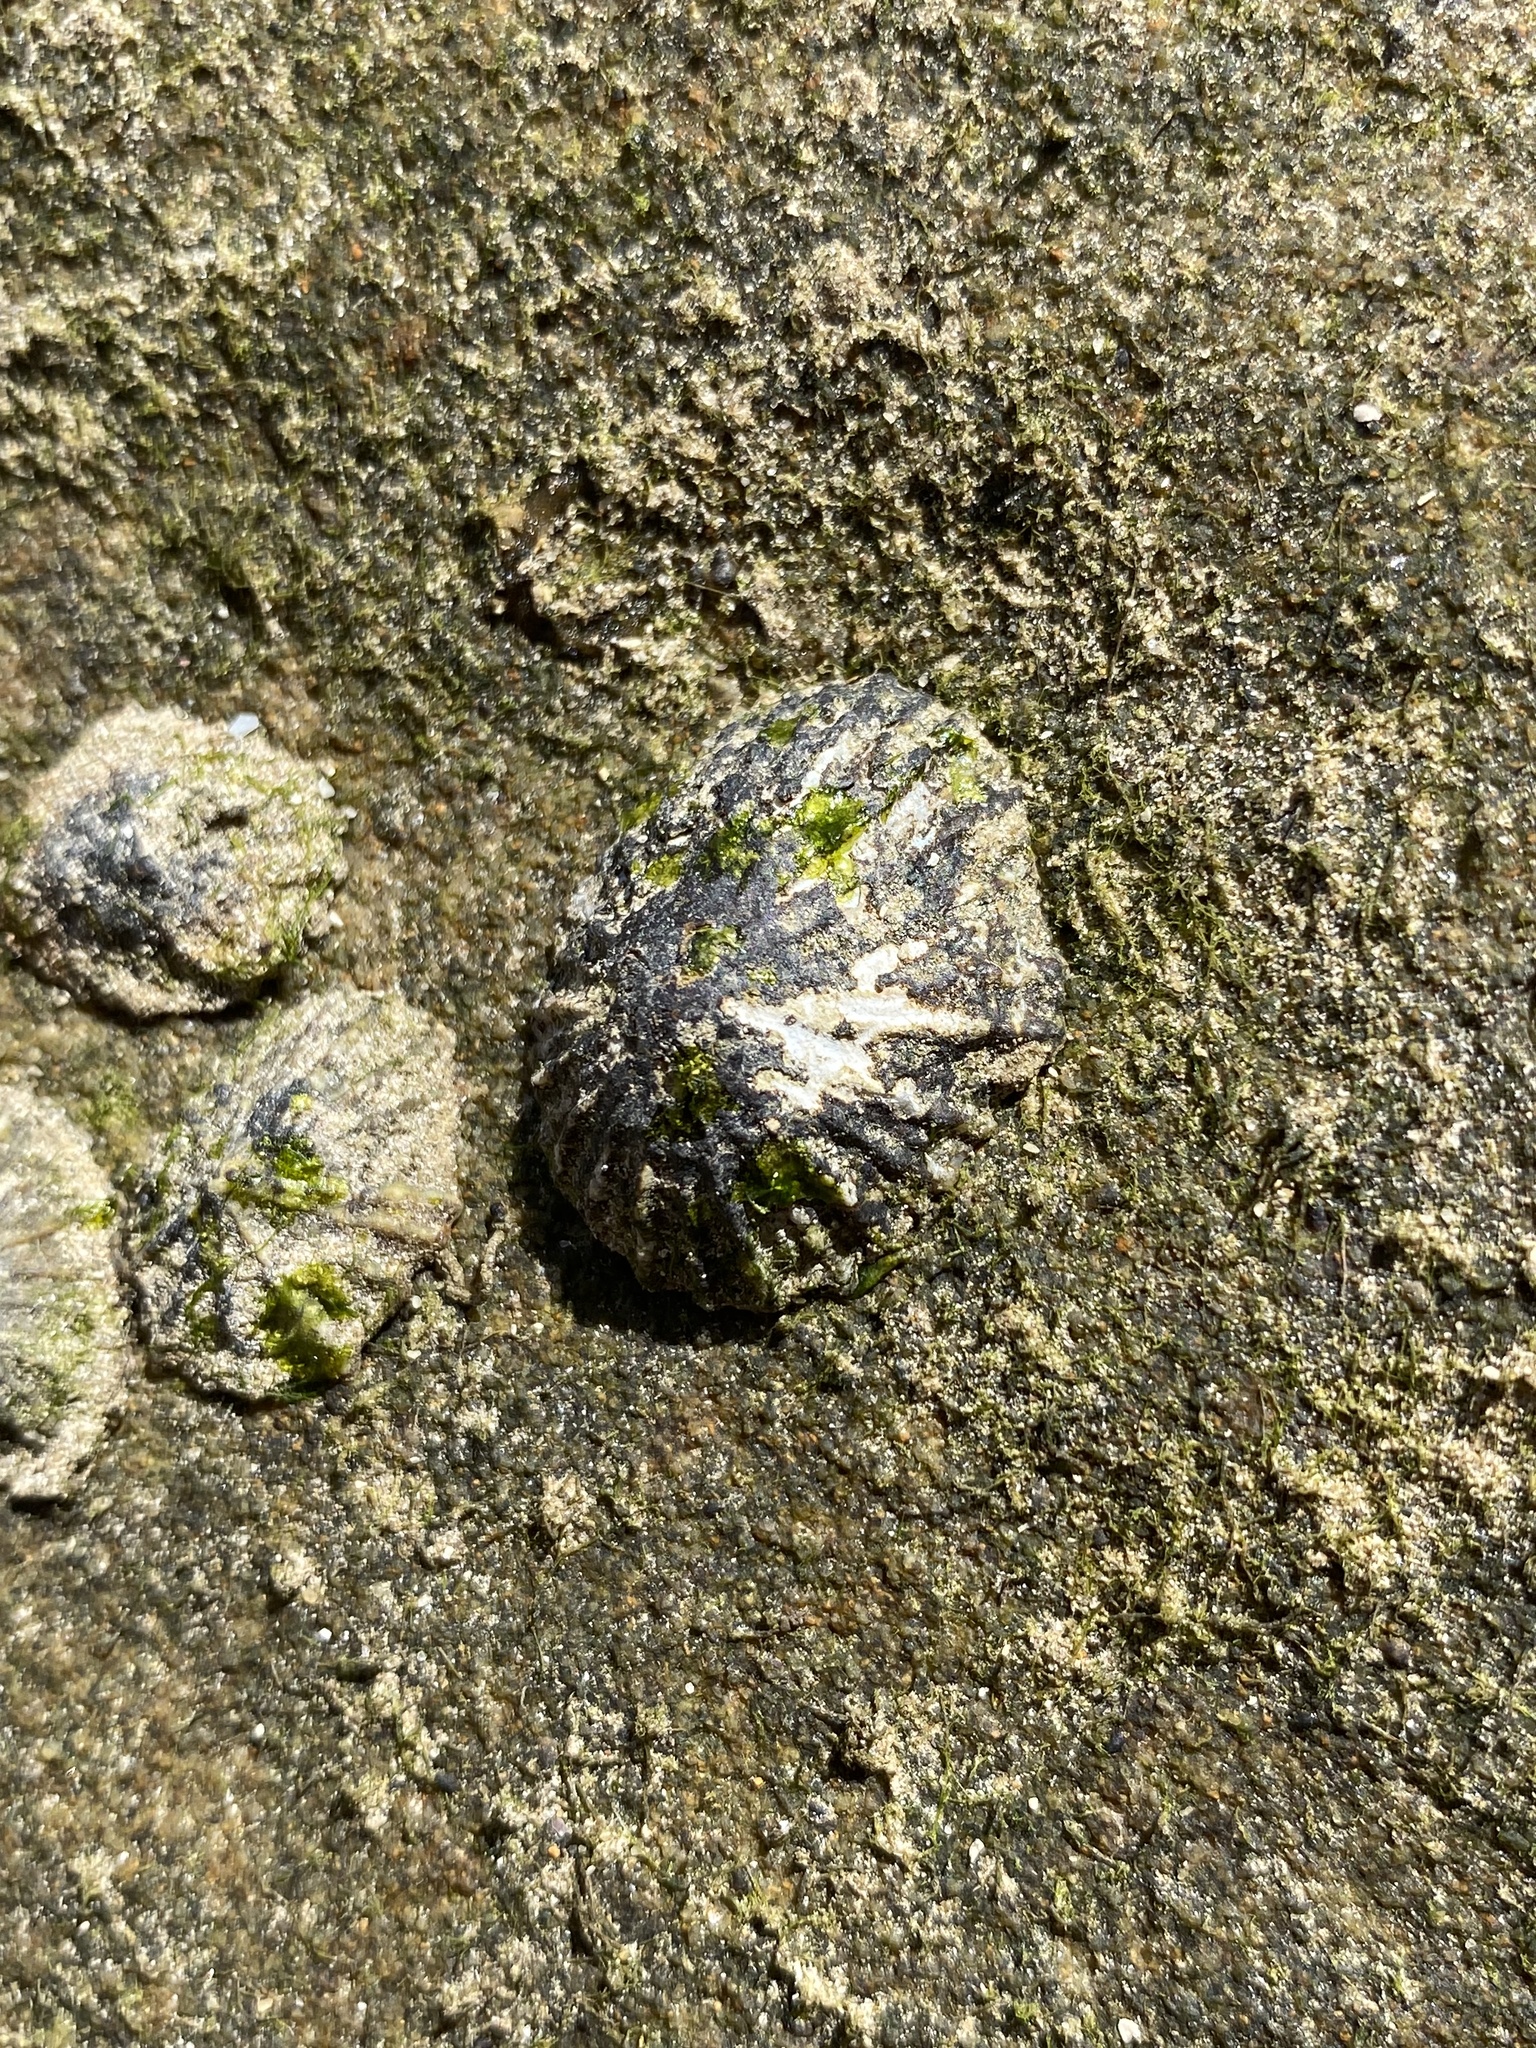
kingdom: Animalia
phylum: Mollusca
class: Gastropoda
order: Siphonariida
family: Siphonariidae
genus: Siphonaria
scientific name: Siphonaria denticulata
